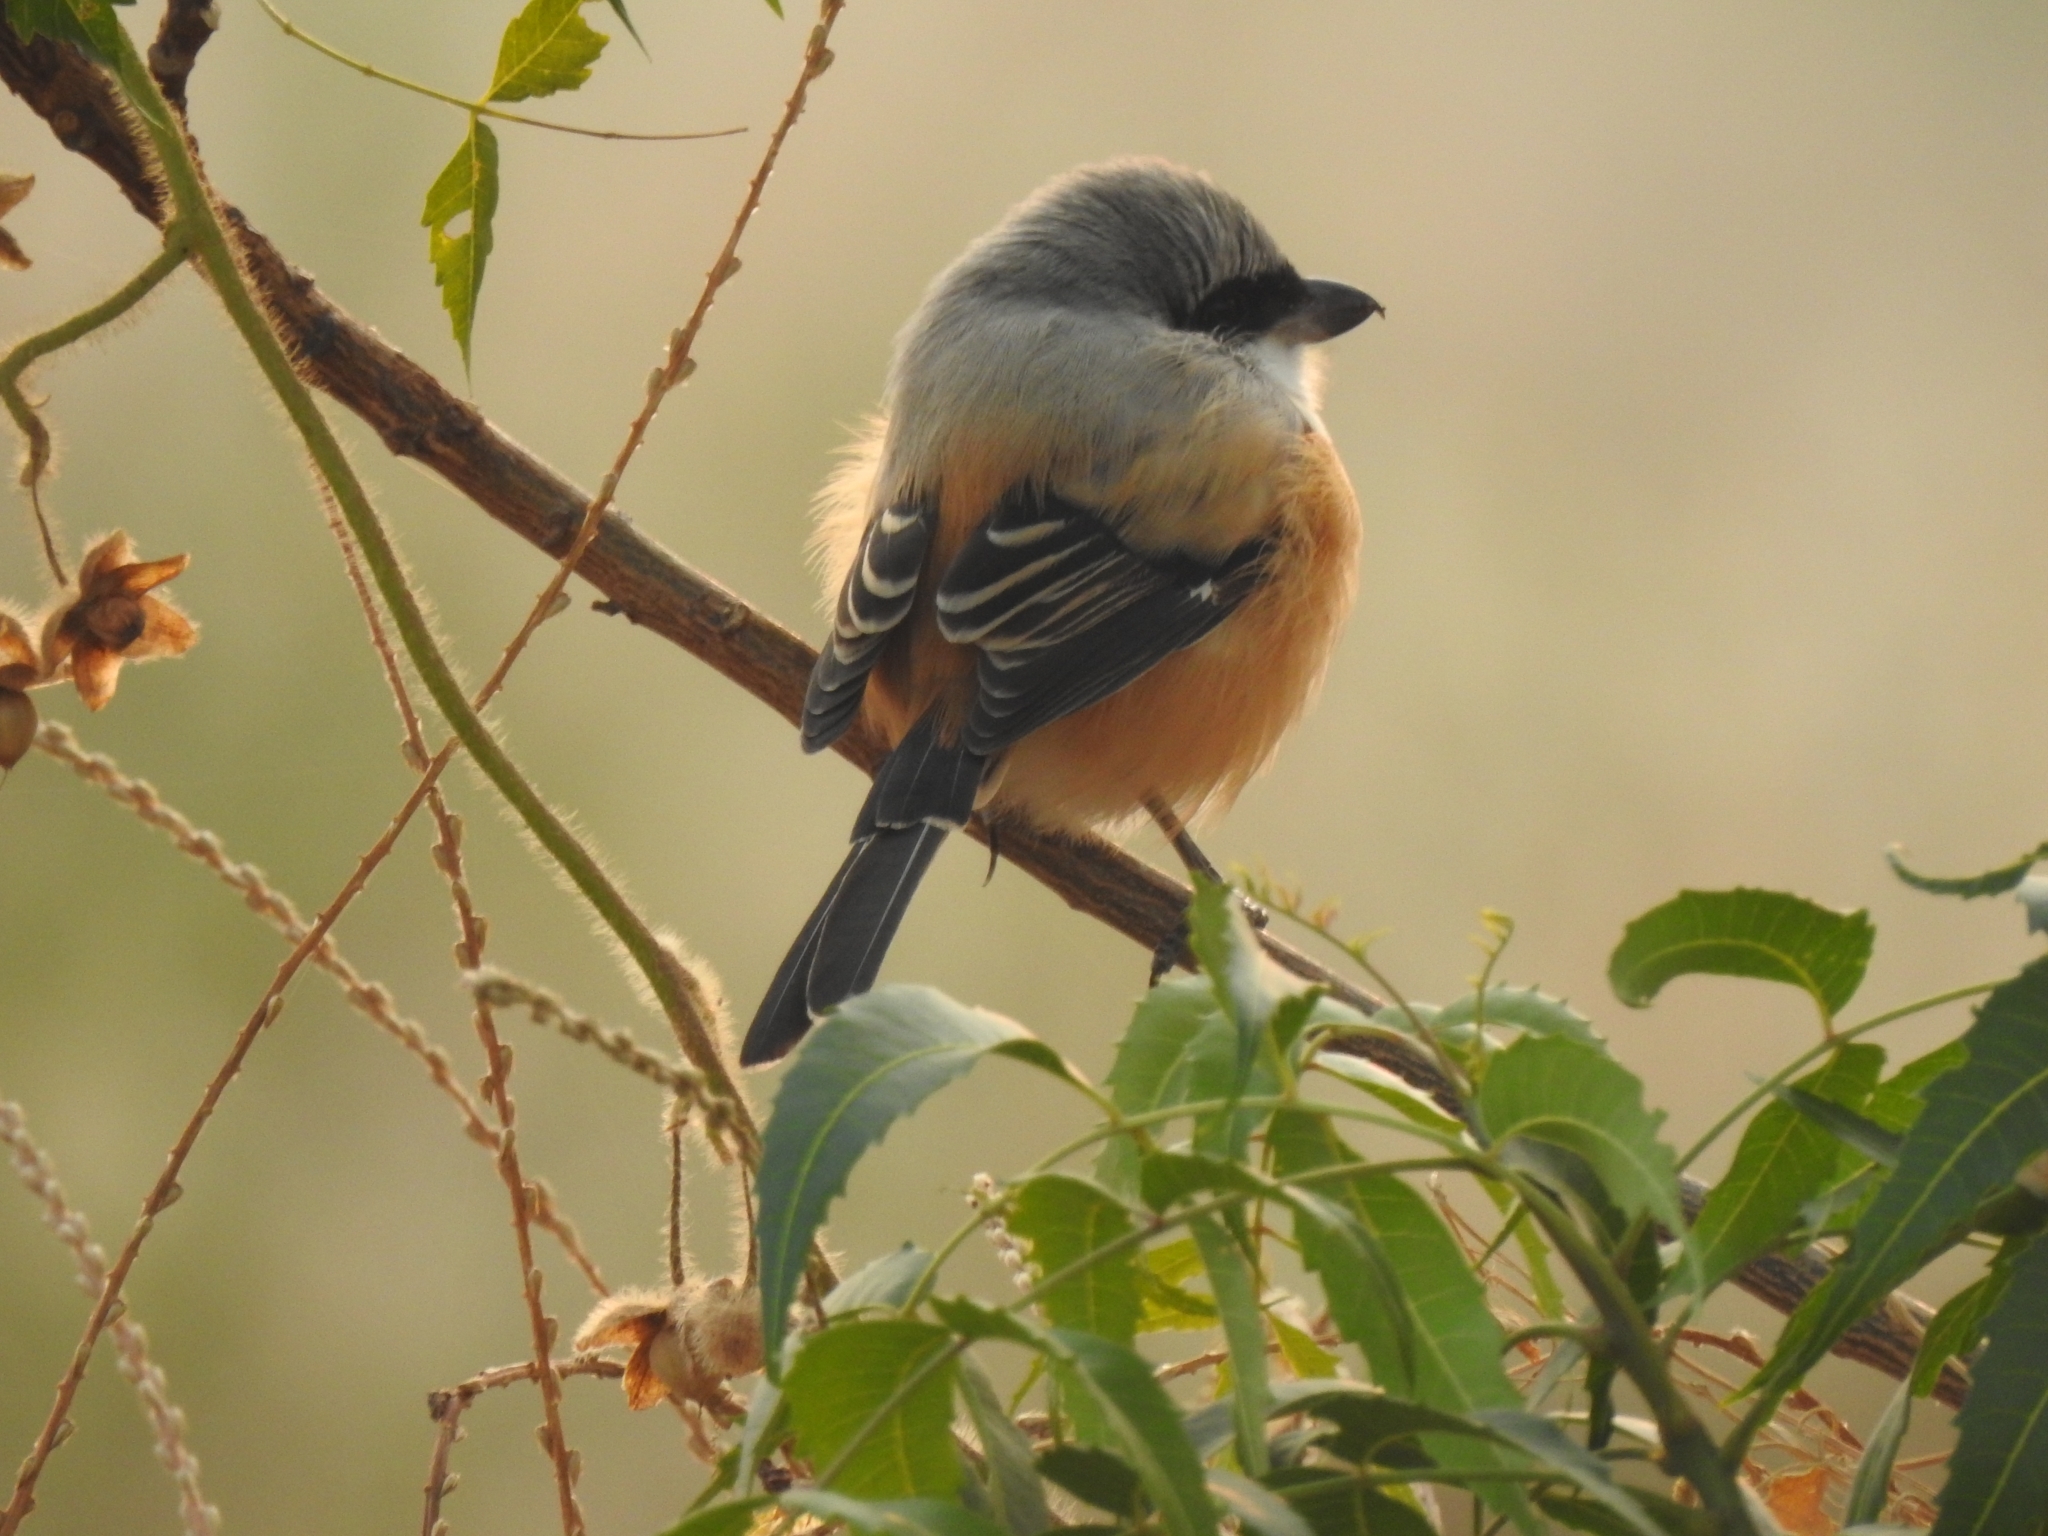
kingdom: Animalia
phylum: Chordata
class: Aves
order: Passeriformes
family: Laniidae
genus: Lanius
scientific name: Lanius schach
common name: Long-tailed shrike
